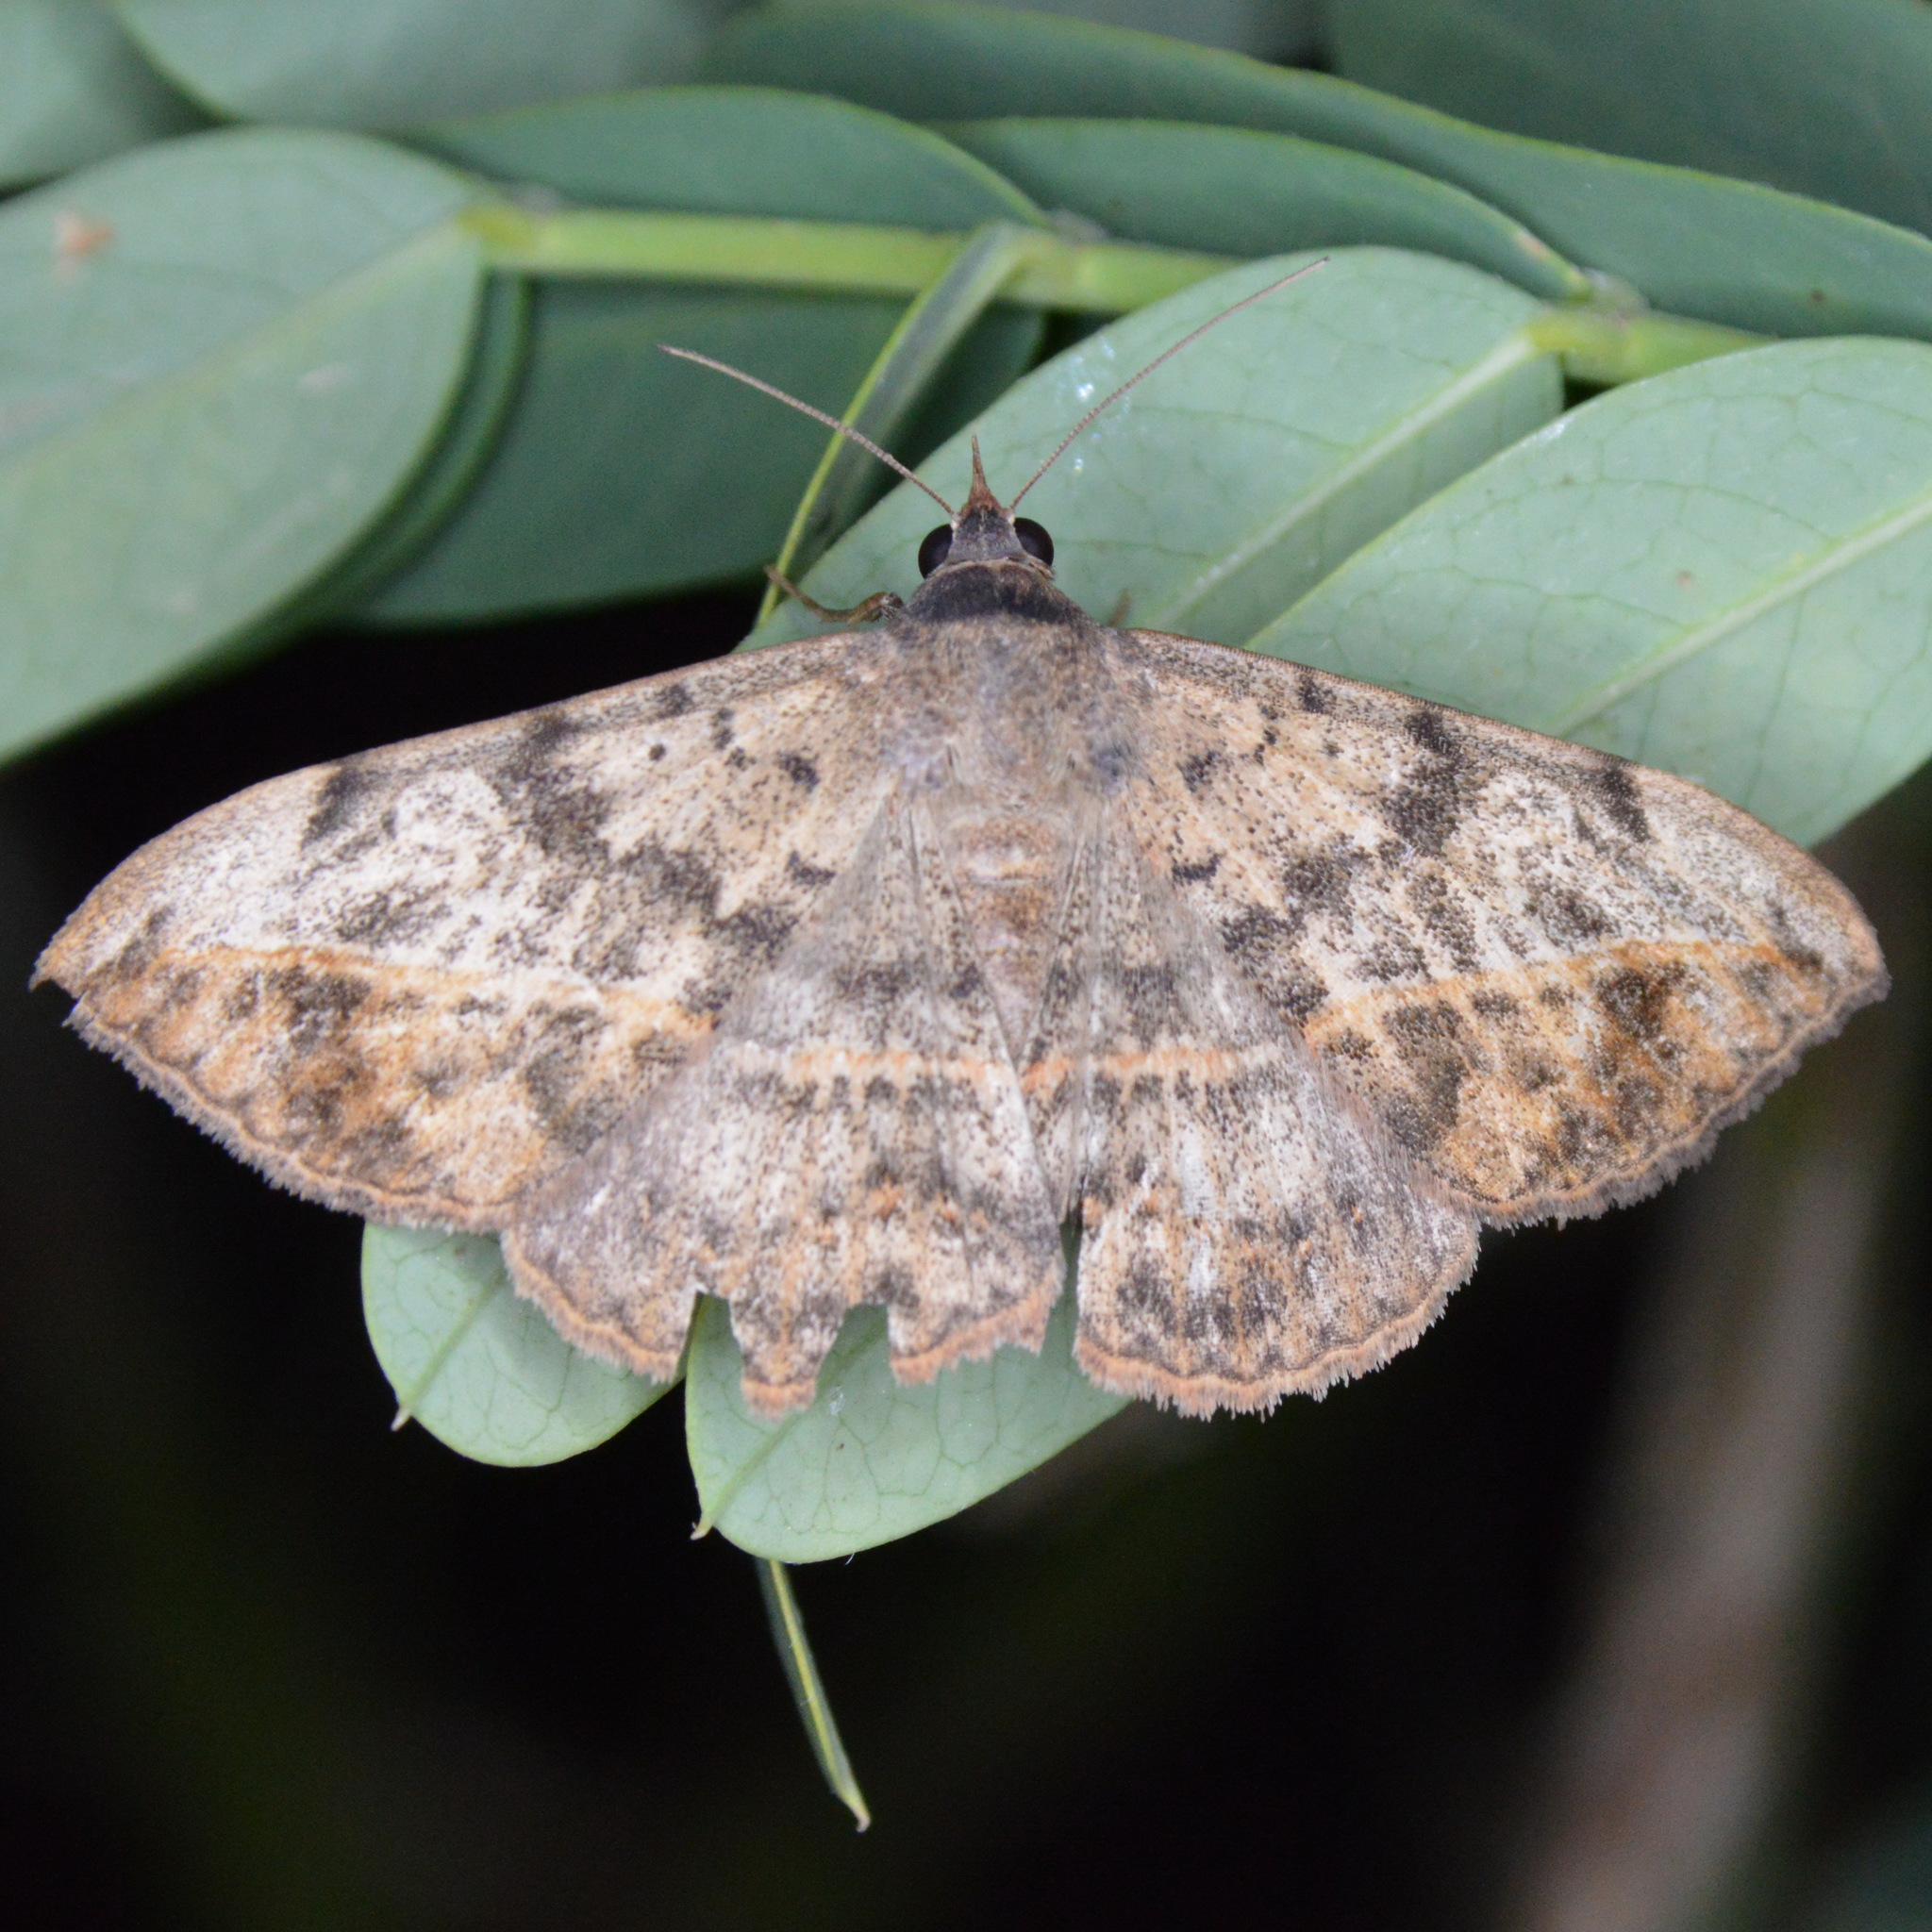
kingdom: Animalia
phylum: Arthropoda
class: Insecta
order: Lepidoptera
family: Erebidae
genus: Anticarsia
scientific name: Anticarsia gemmatalis
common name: Cutworm moth
